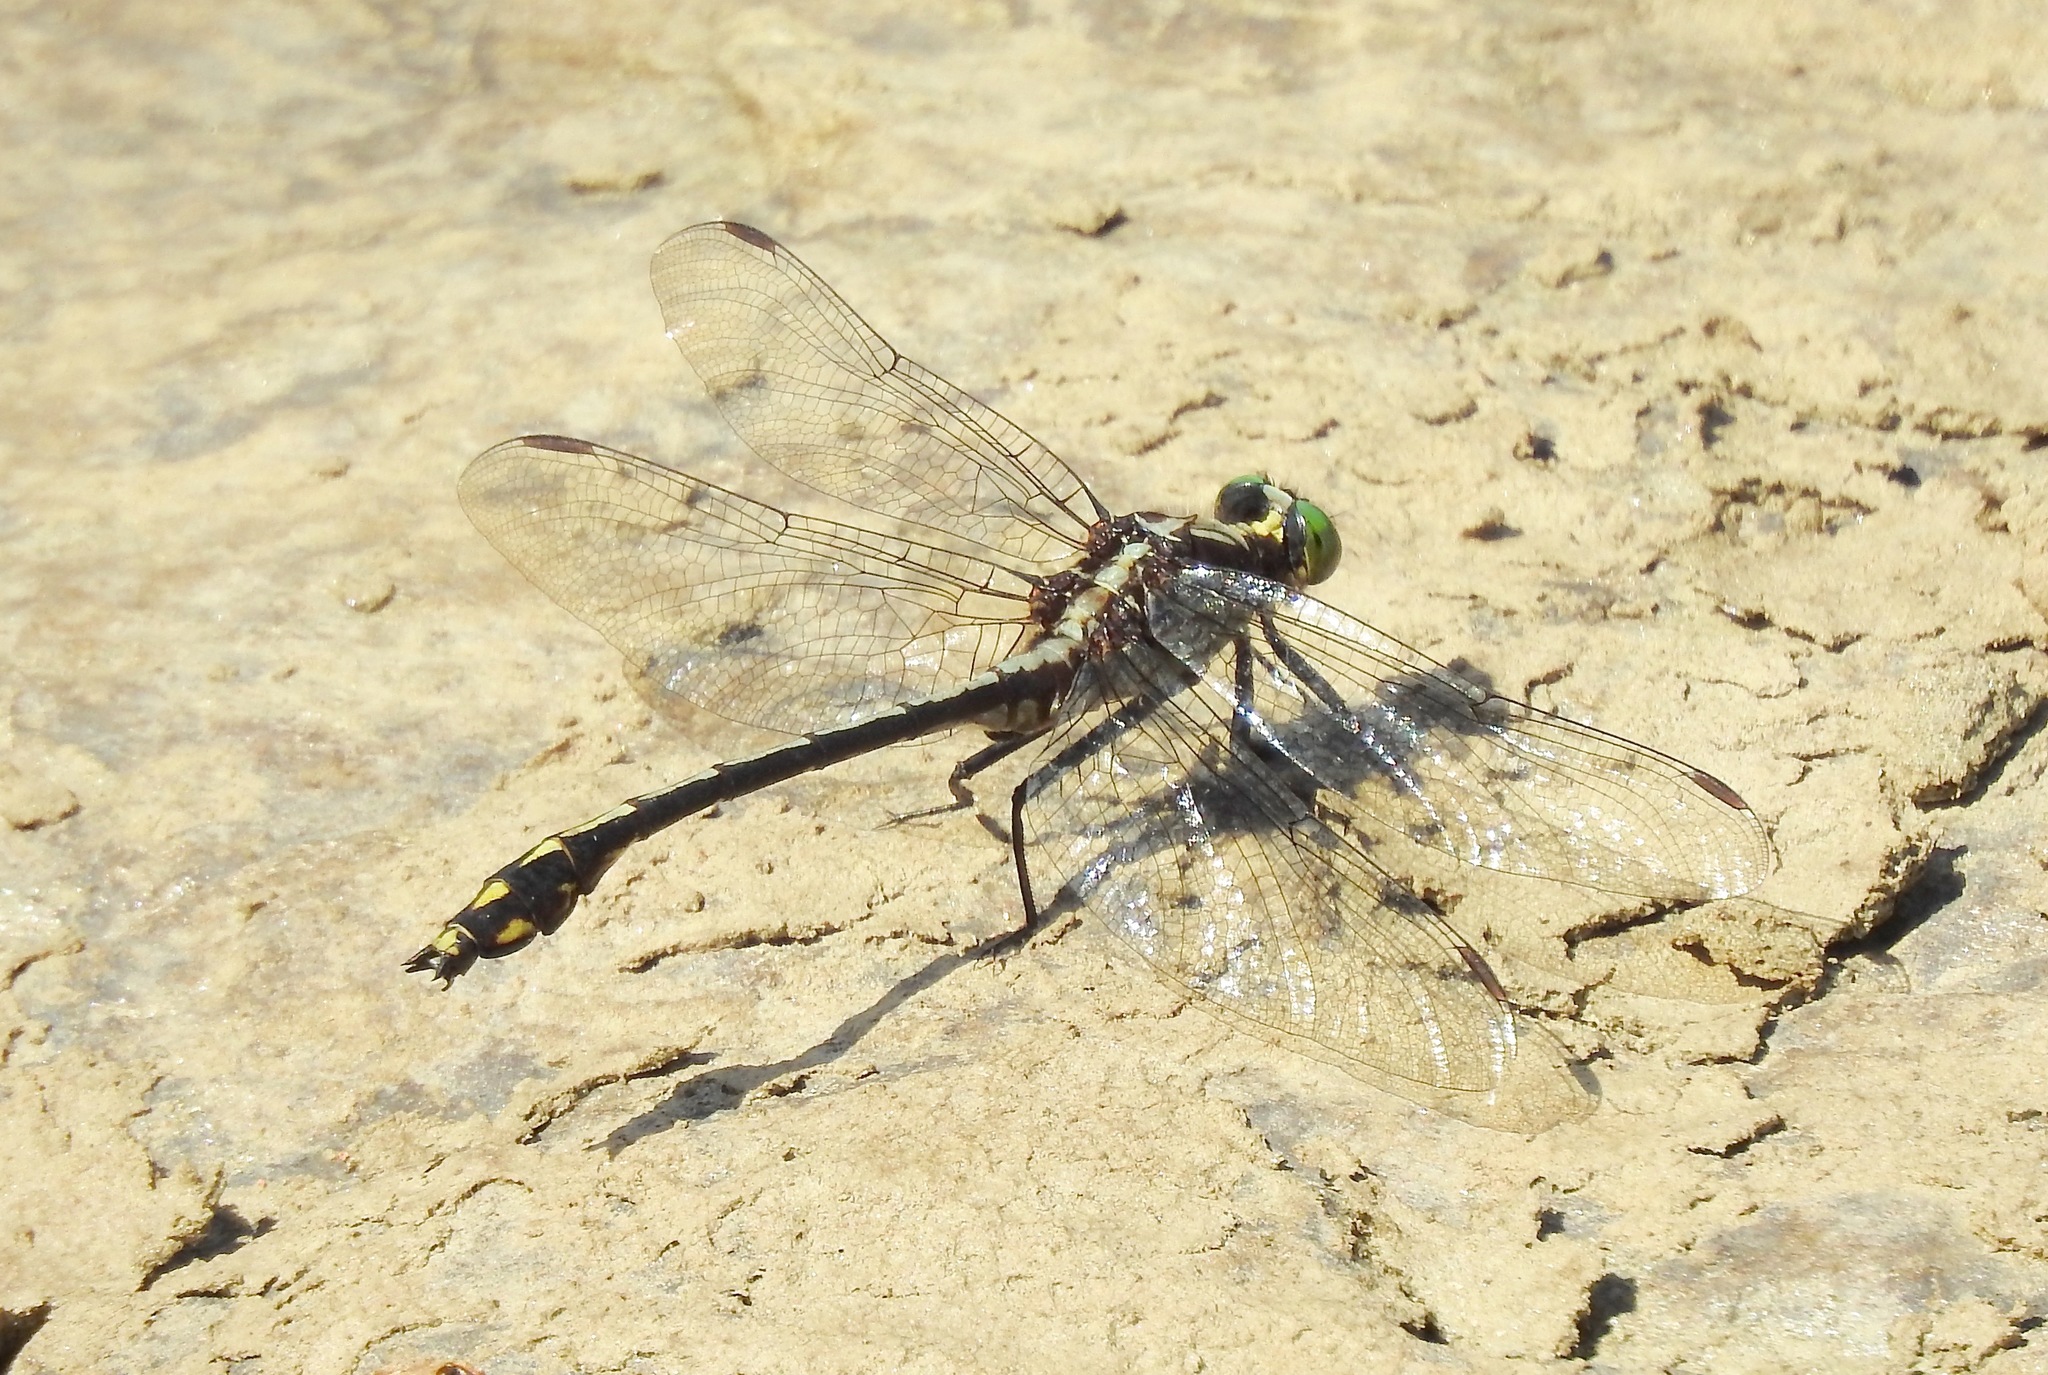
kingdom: Animalia
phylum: Arthropoda
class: Insecta
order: Odonata
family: Gomphidae
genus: Dromogomphus
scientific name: Dromogomphus spinosus
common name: Black-shouldered spinyleg
